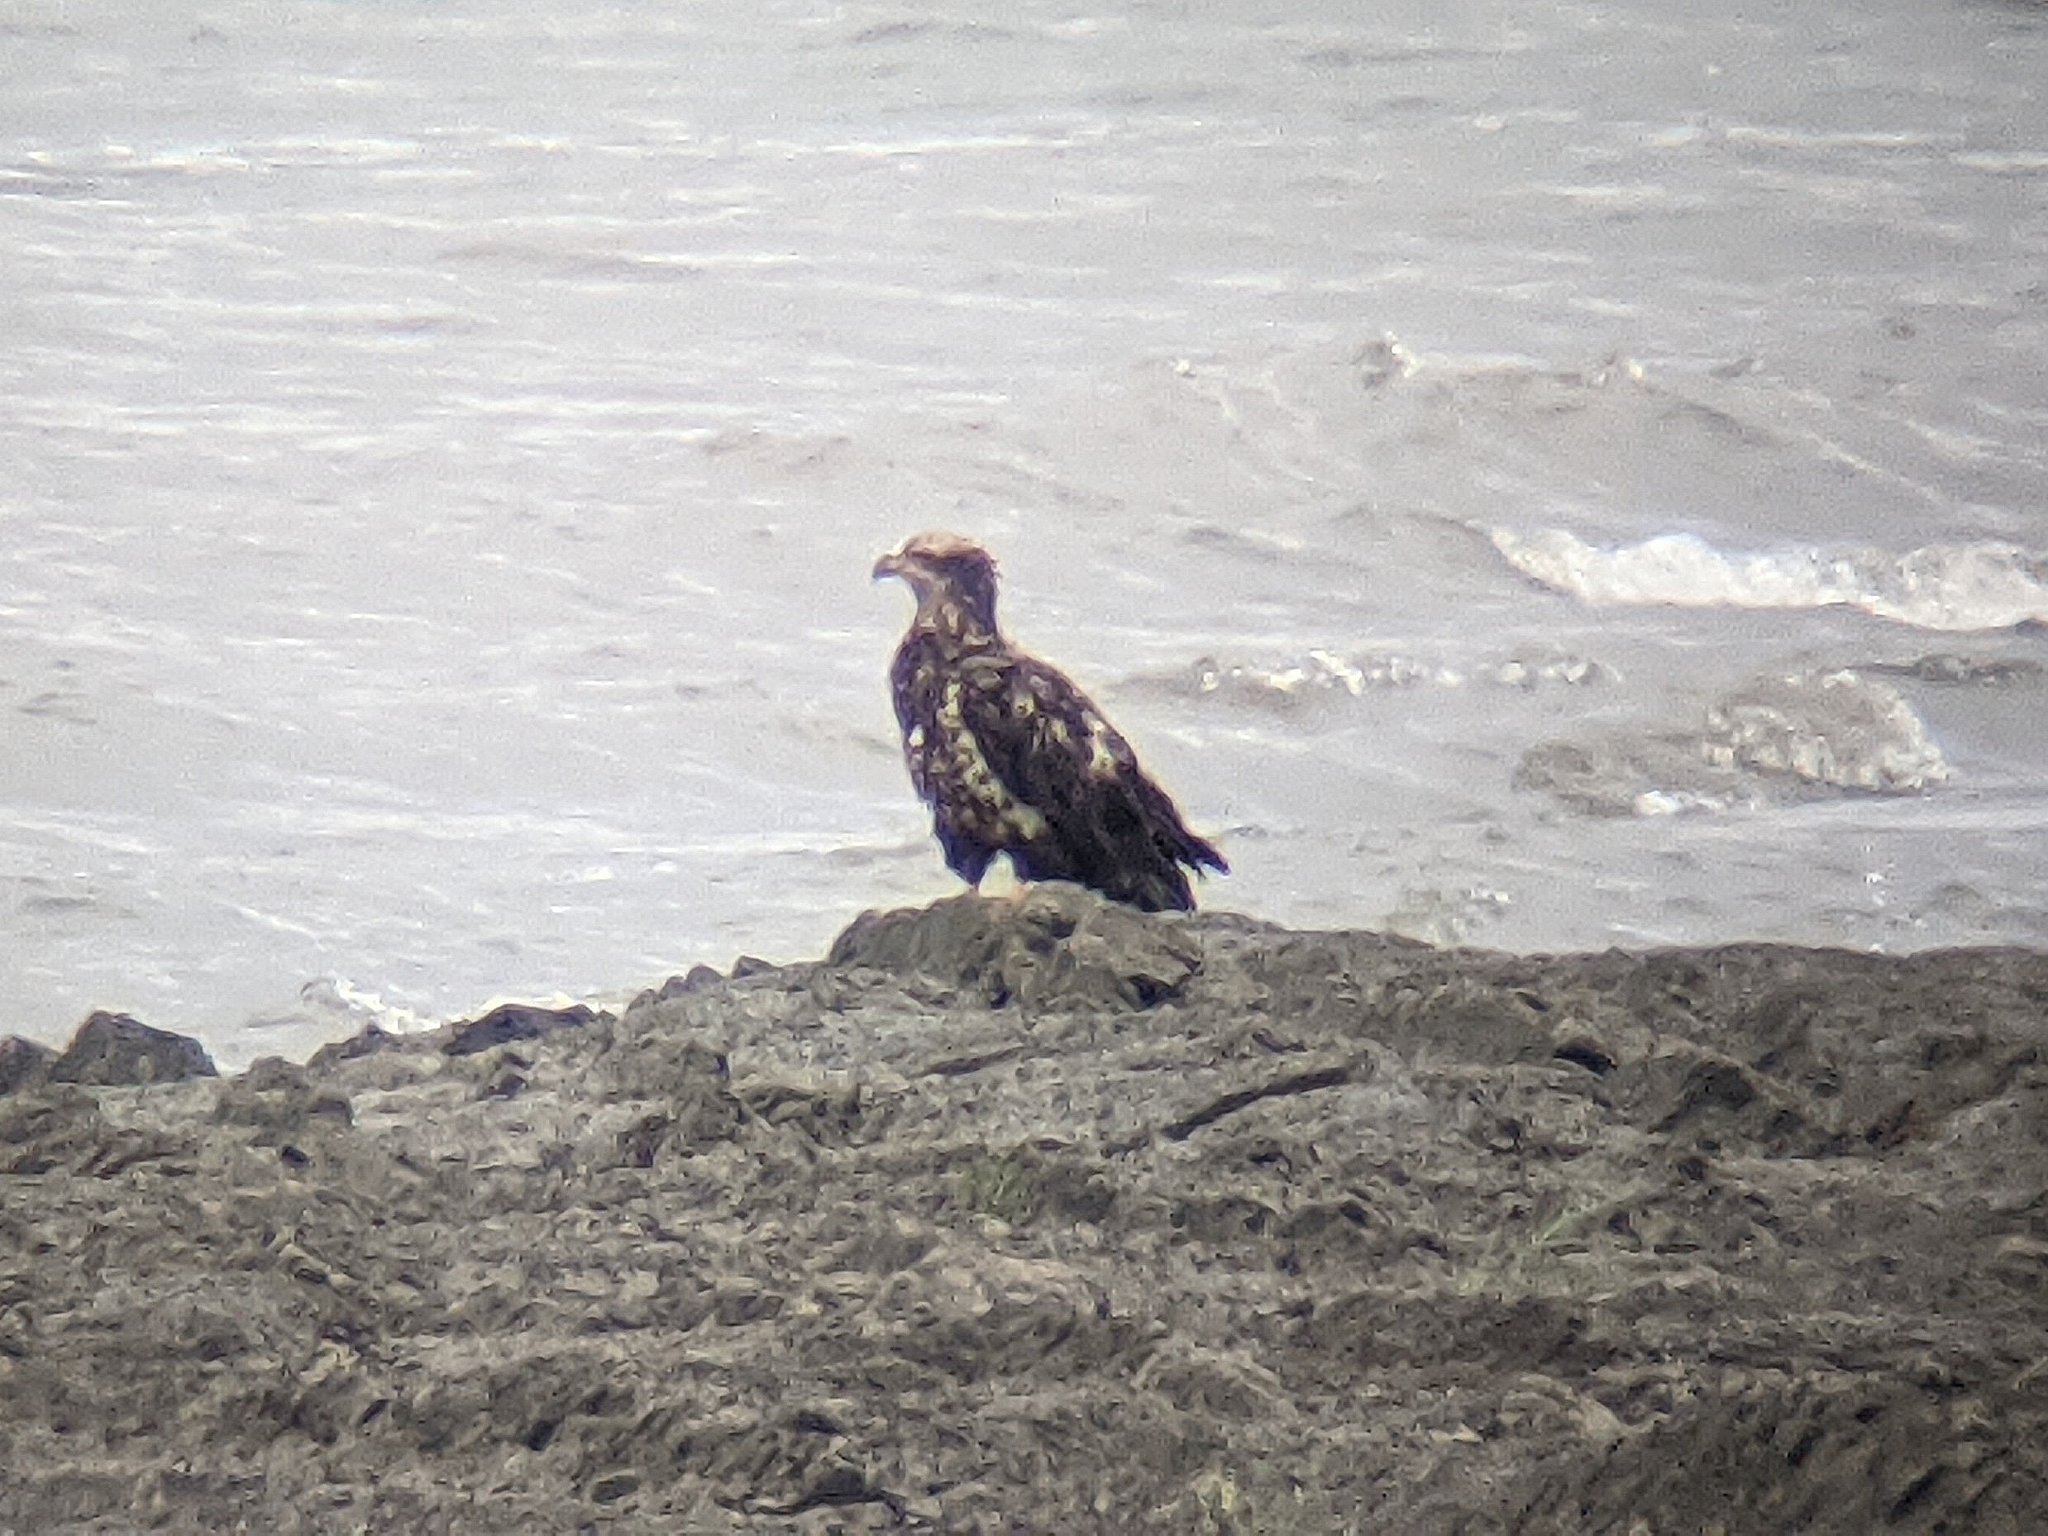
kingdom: Animalia
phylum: Chordata
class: Aves
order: Accipitriformes
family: Accipitridae
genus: Haliaeetus
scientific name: Haliaeetus leucocephalus
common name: Bald eagle
